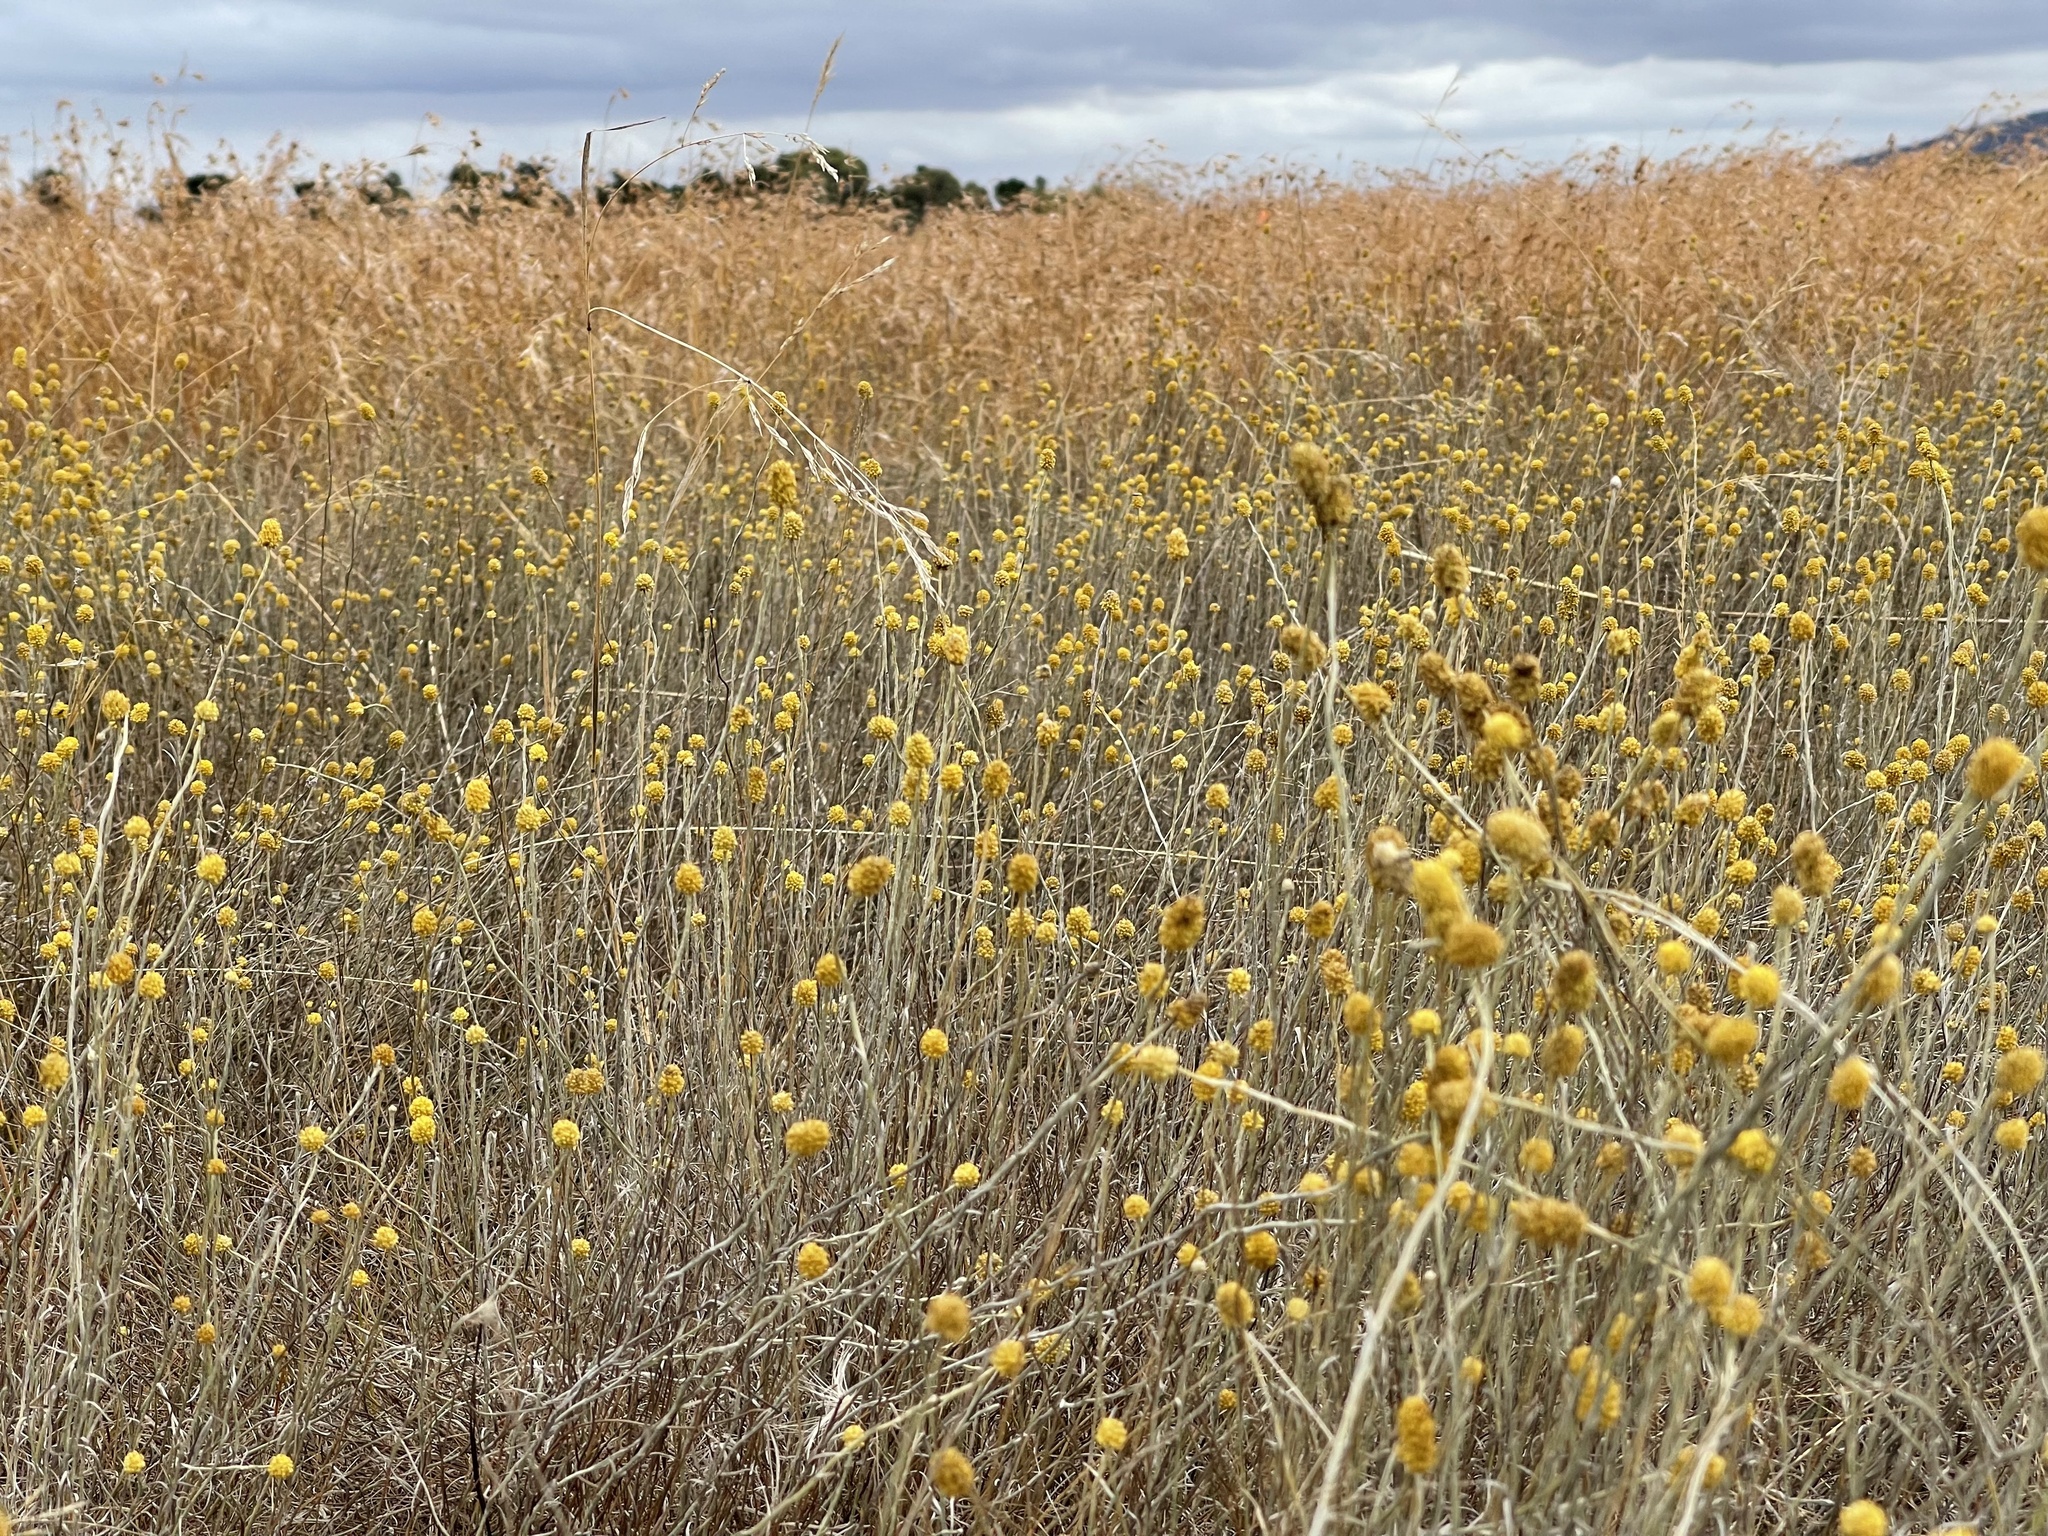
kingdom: Plantae
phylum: Tracheophyta
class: Magnoliopsida
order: Asterales
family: Asteraceae
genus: Calocephalus
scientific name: Calocephalus citreus
